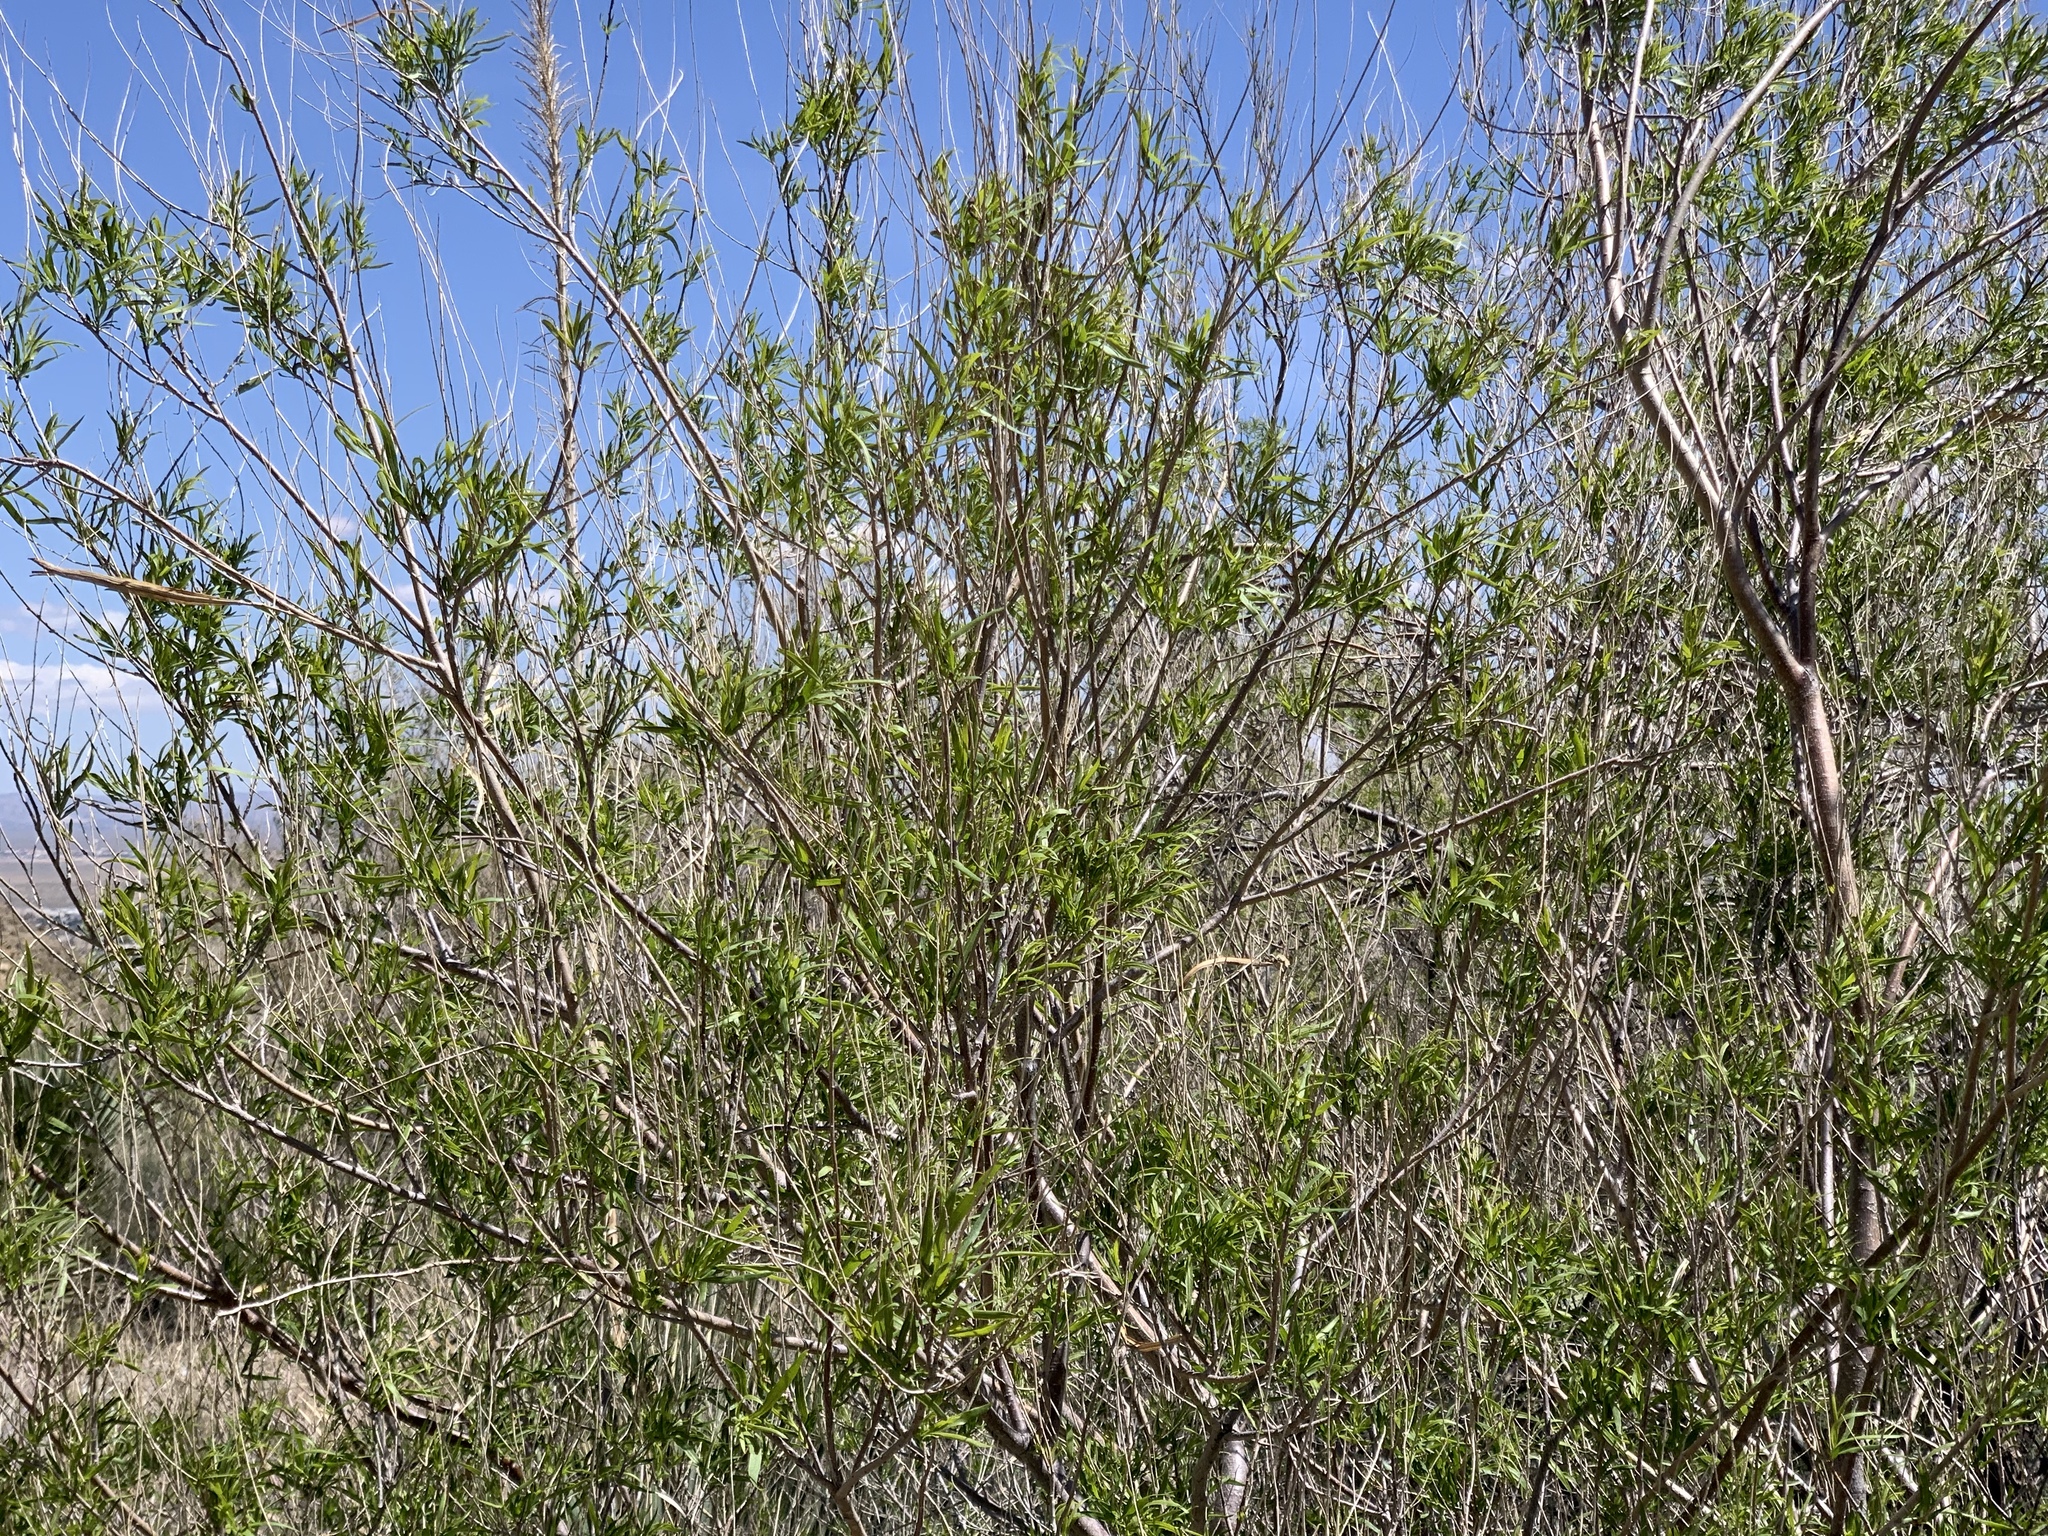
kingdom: Plantae
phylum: Tracheophyta
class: Magnoliopsida
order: Lamiales
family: Bignoniaceae
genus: Chilopsis
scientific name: Chilopsis linearis
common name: Desert-willow
